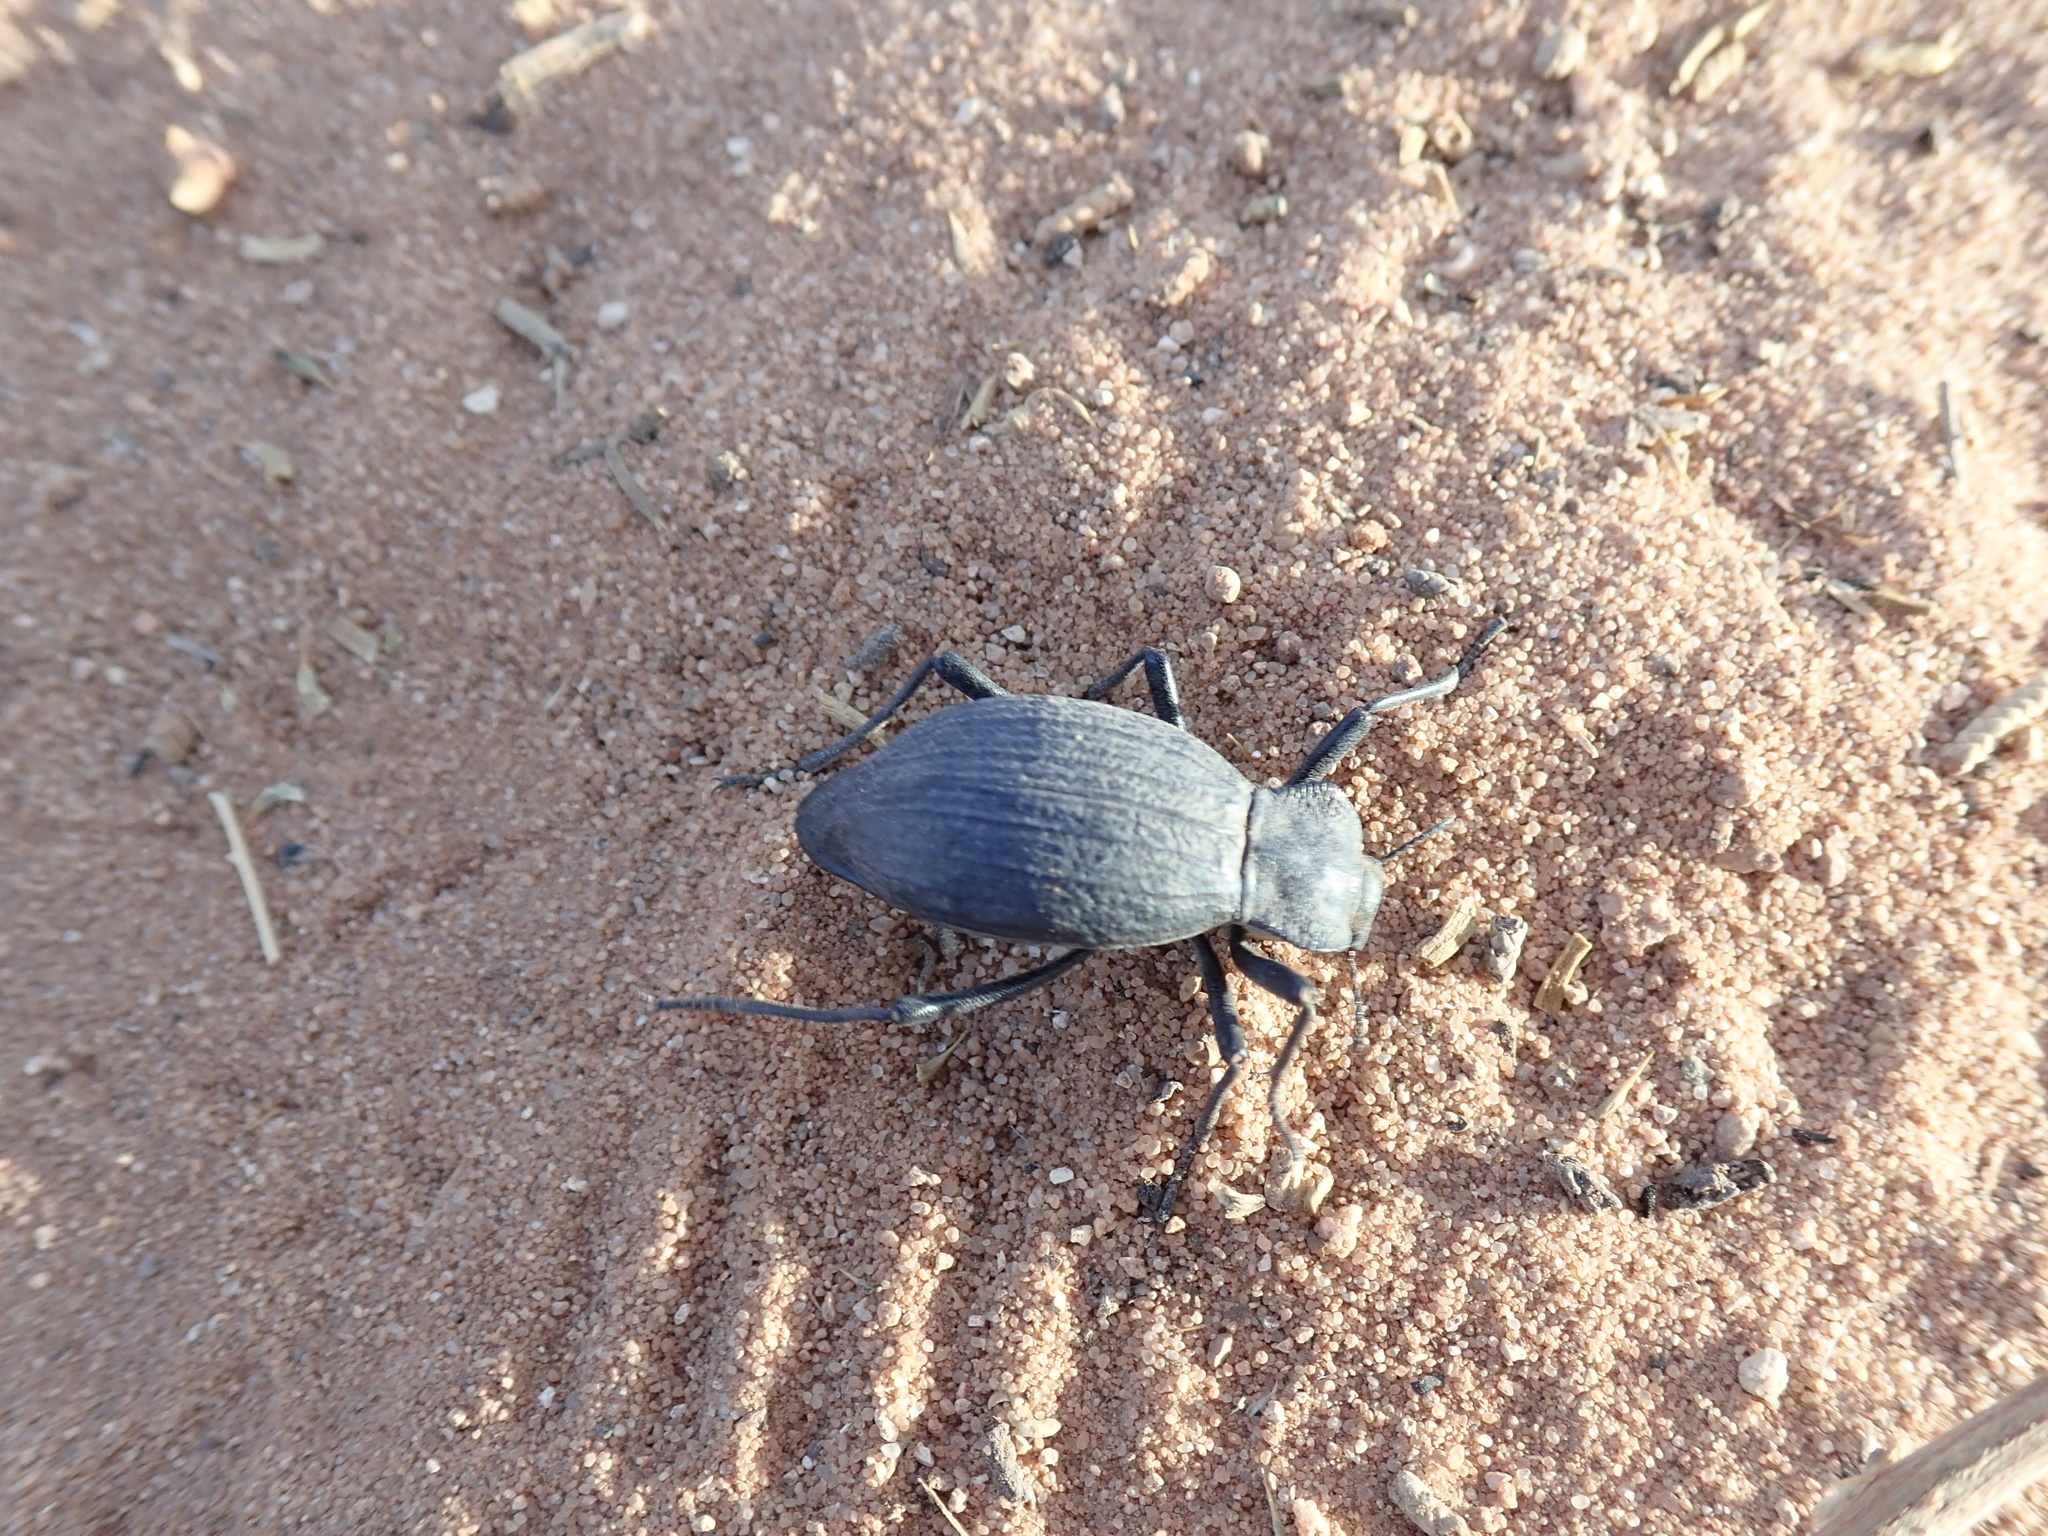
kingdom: Animalia
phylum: Arthropoda
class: Insecta
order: Coleoptera
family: Tenebrionidae
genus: Philolithus
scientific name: Philolithus elatus
